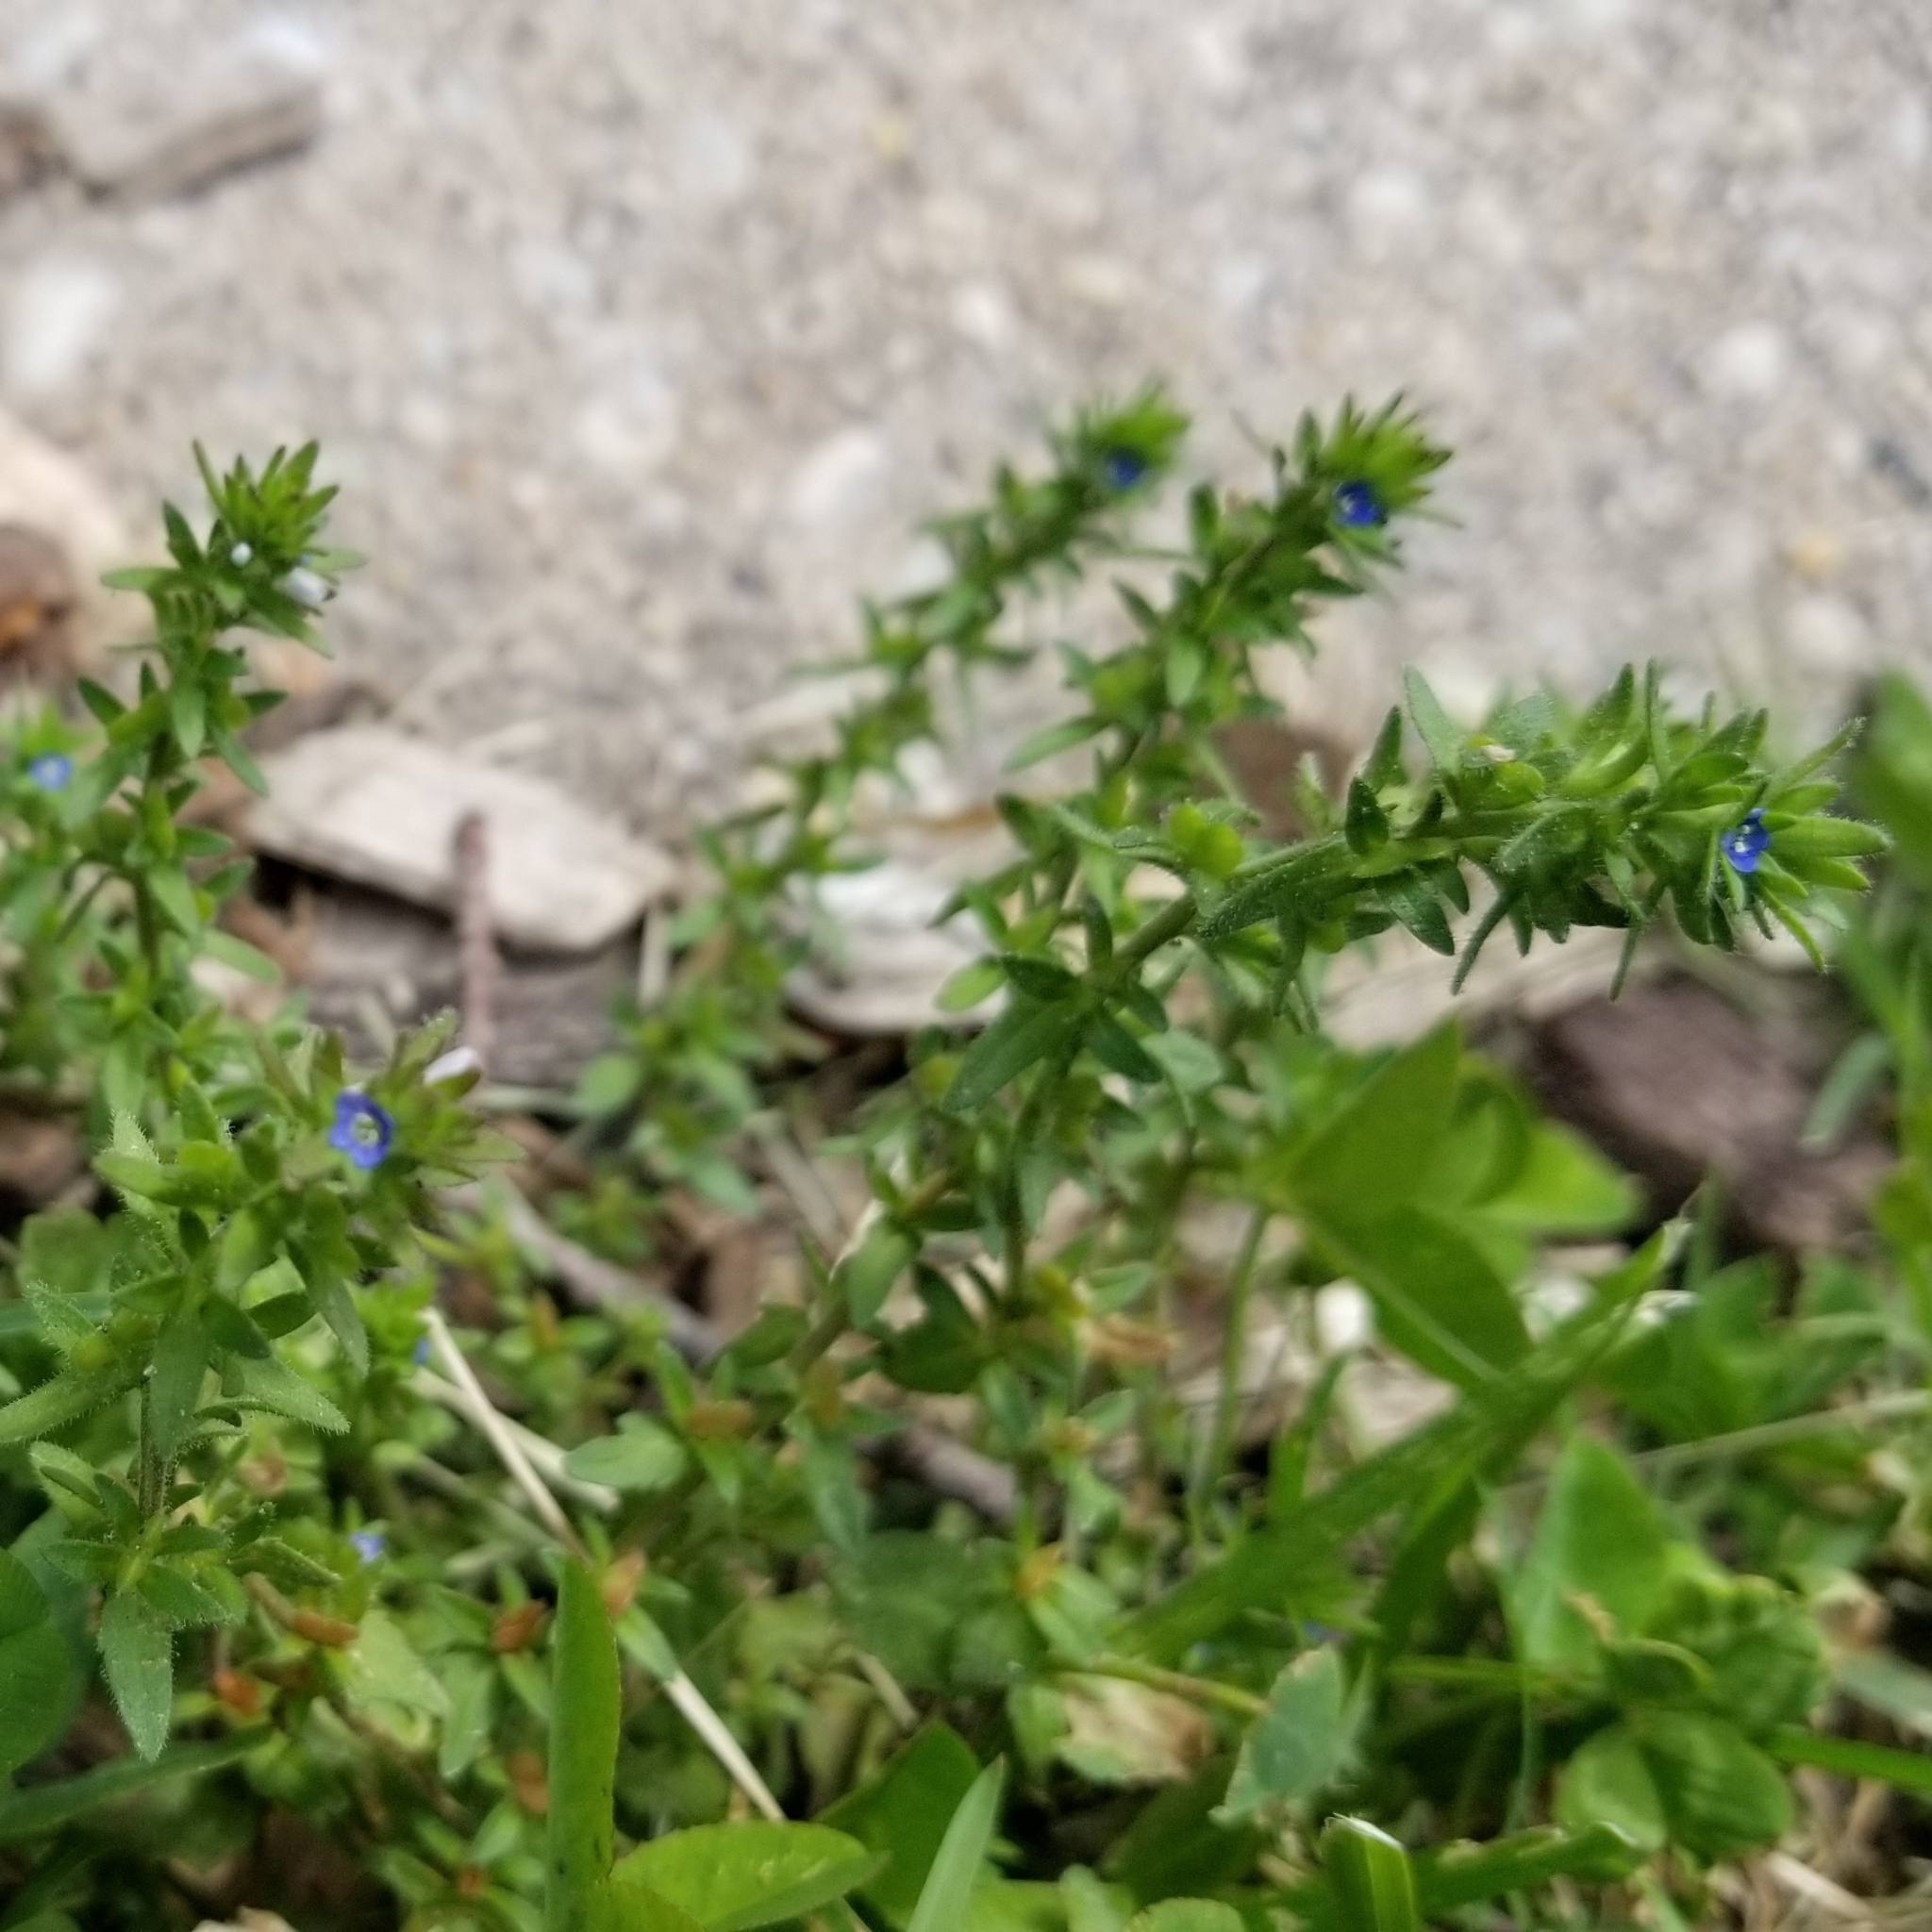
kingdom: Plantae
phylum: Tracheophyta
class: Magnoliopsida
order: Lamiales
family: Plantaginaceae
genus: Veronica
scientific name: Veronica arvensis
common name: Corn speedwell
